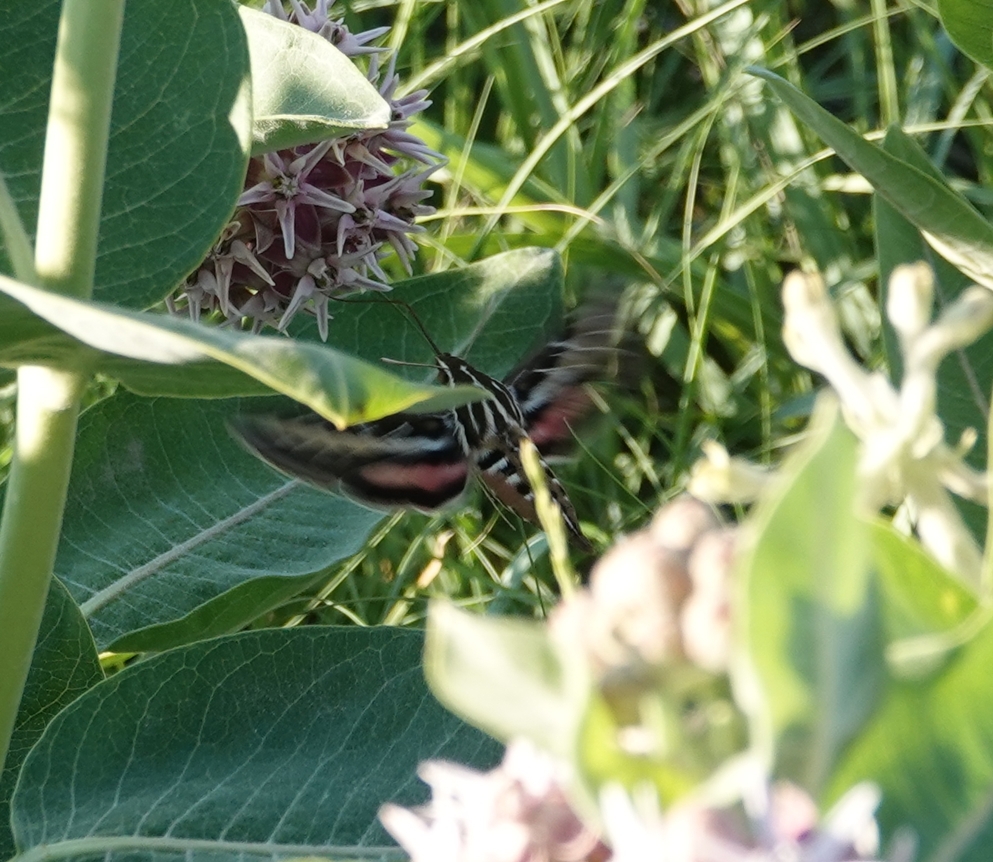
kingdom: Animalia
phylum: Arthropoda
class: Insecta
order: Lepidoptera
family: Sphingidae
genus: Hyles
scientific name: Hyles lineata
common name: White-lined sphinx
